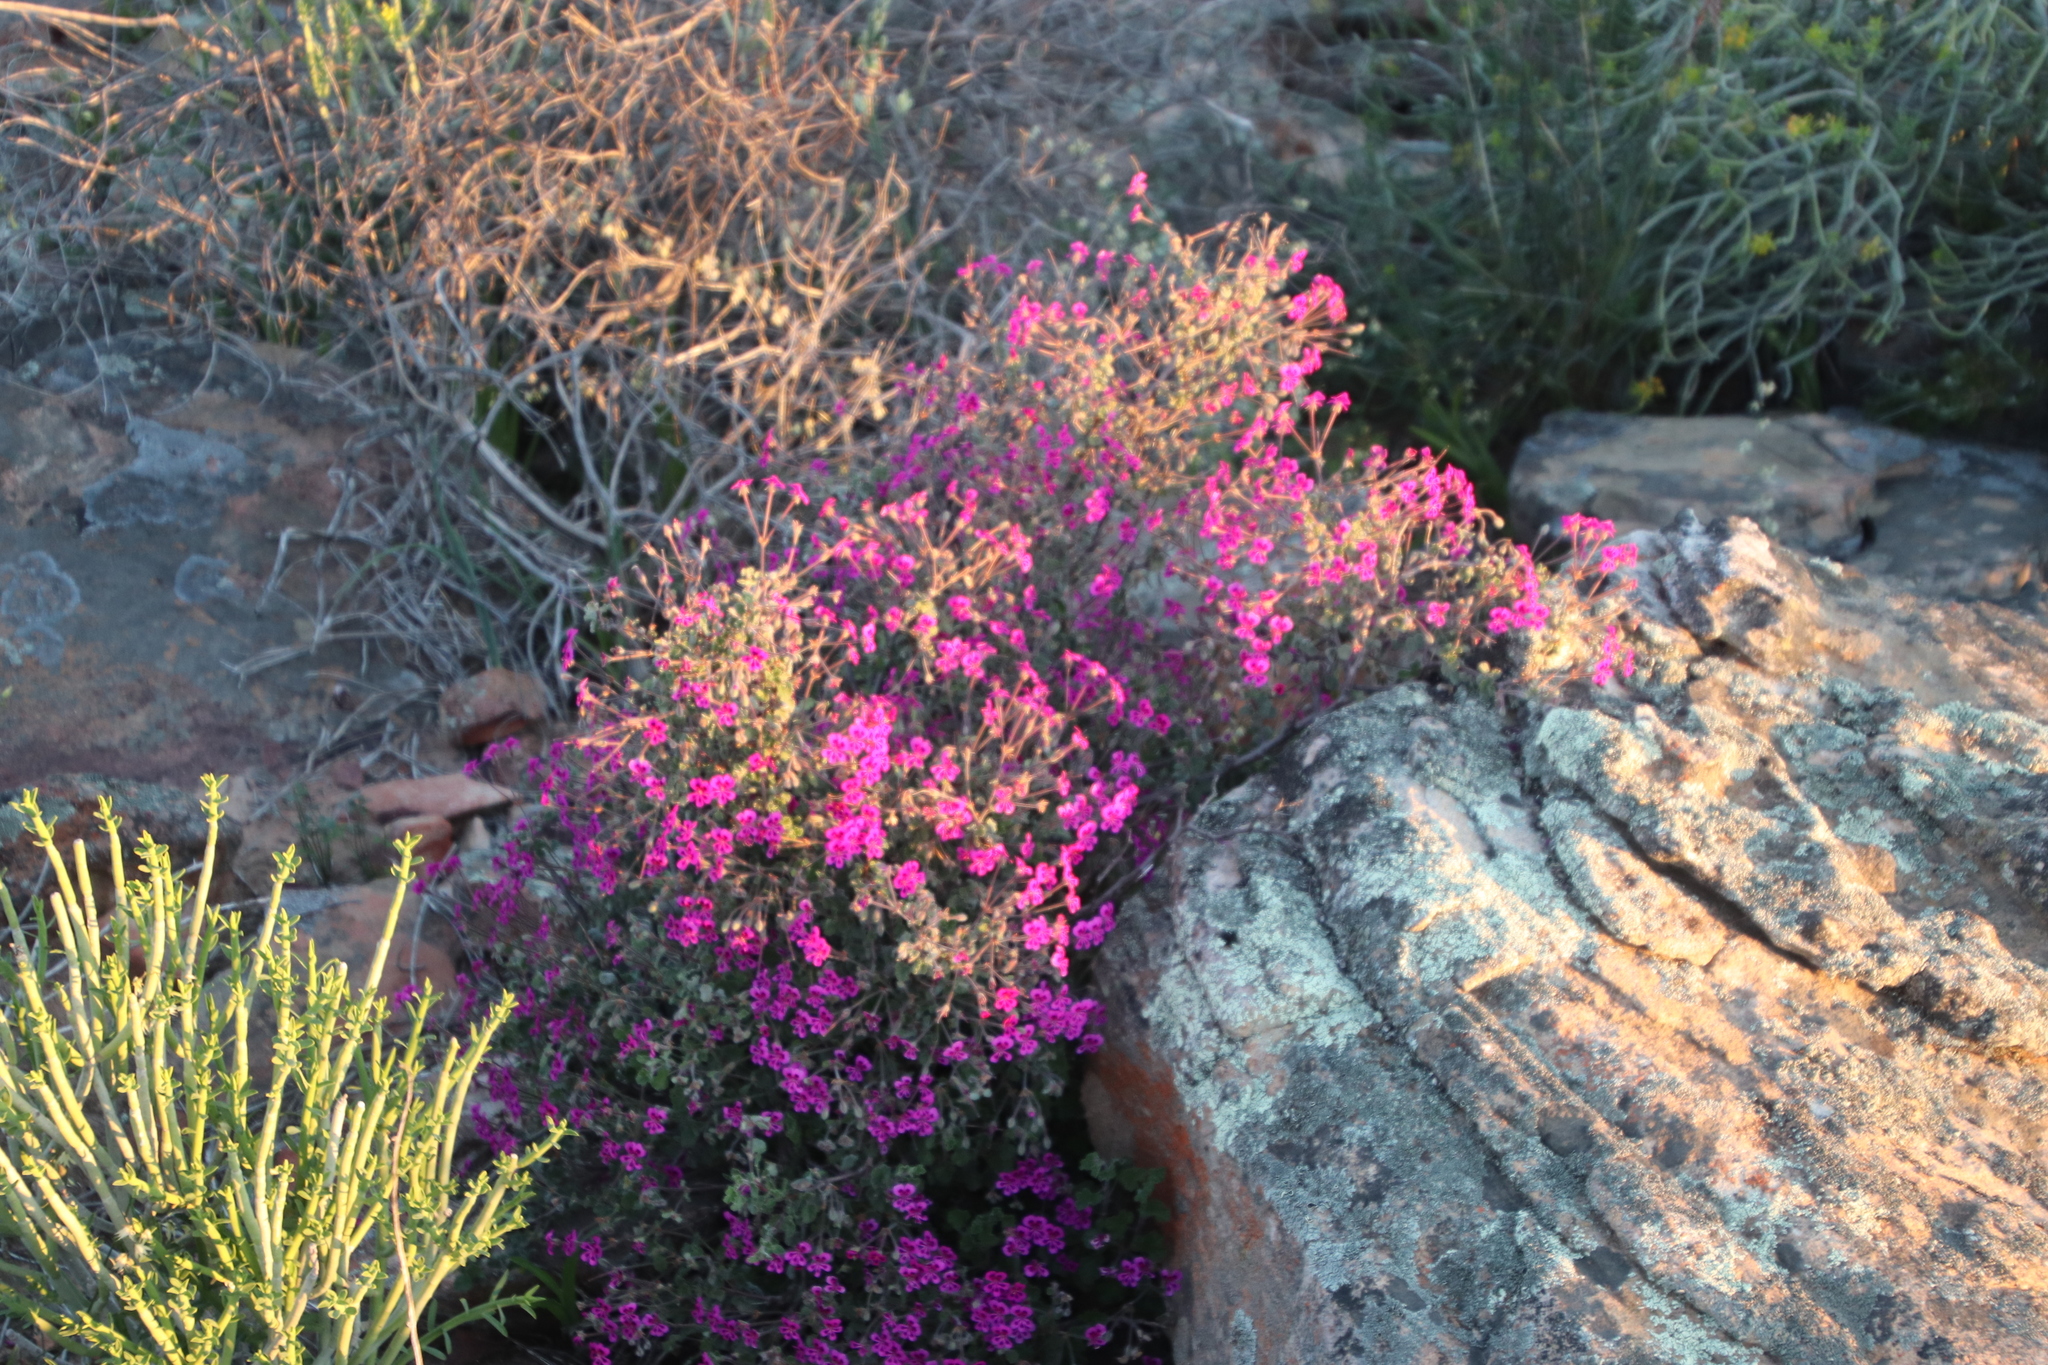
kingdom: Plantae
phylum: Tracheophyta
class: Magnoliopsida
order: Geraniales
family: Geraniaceae
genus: Pelargonium
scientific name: Pelargonium magenteum
